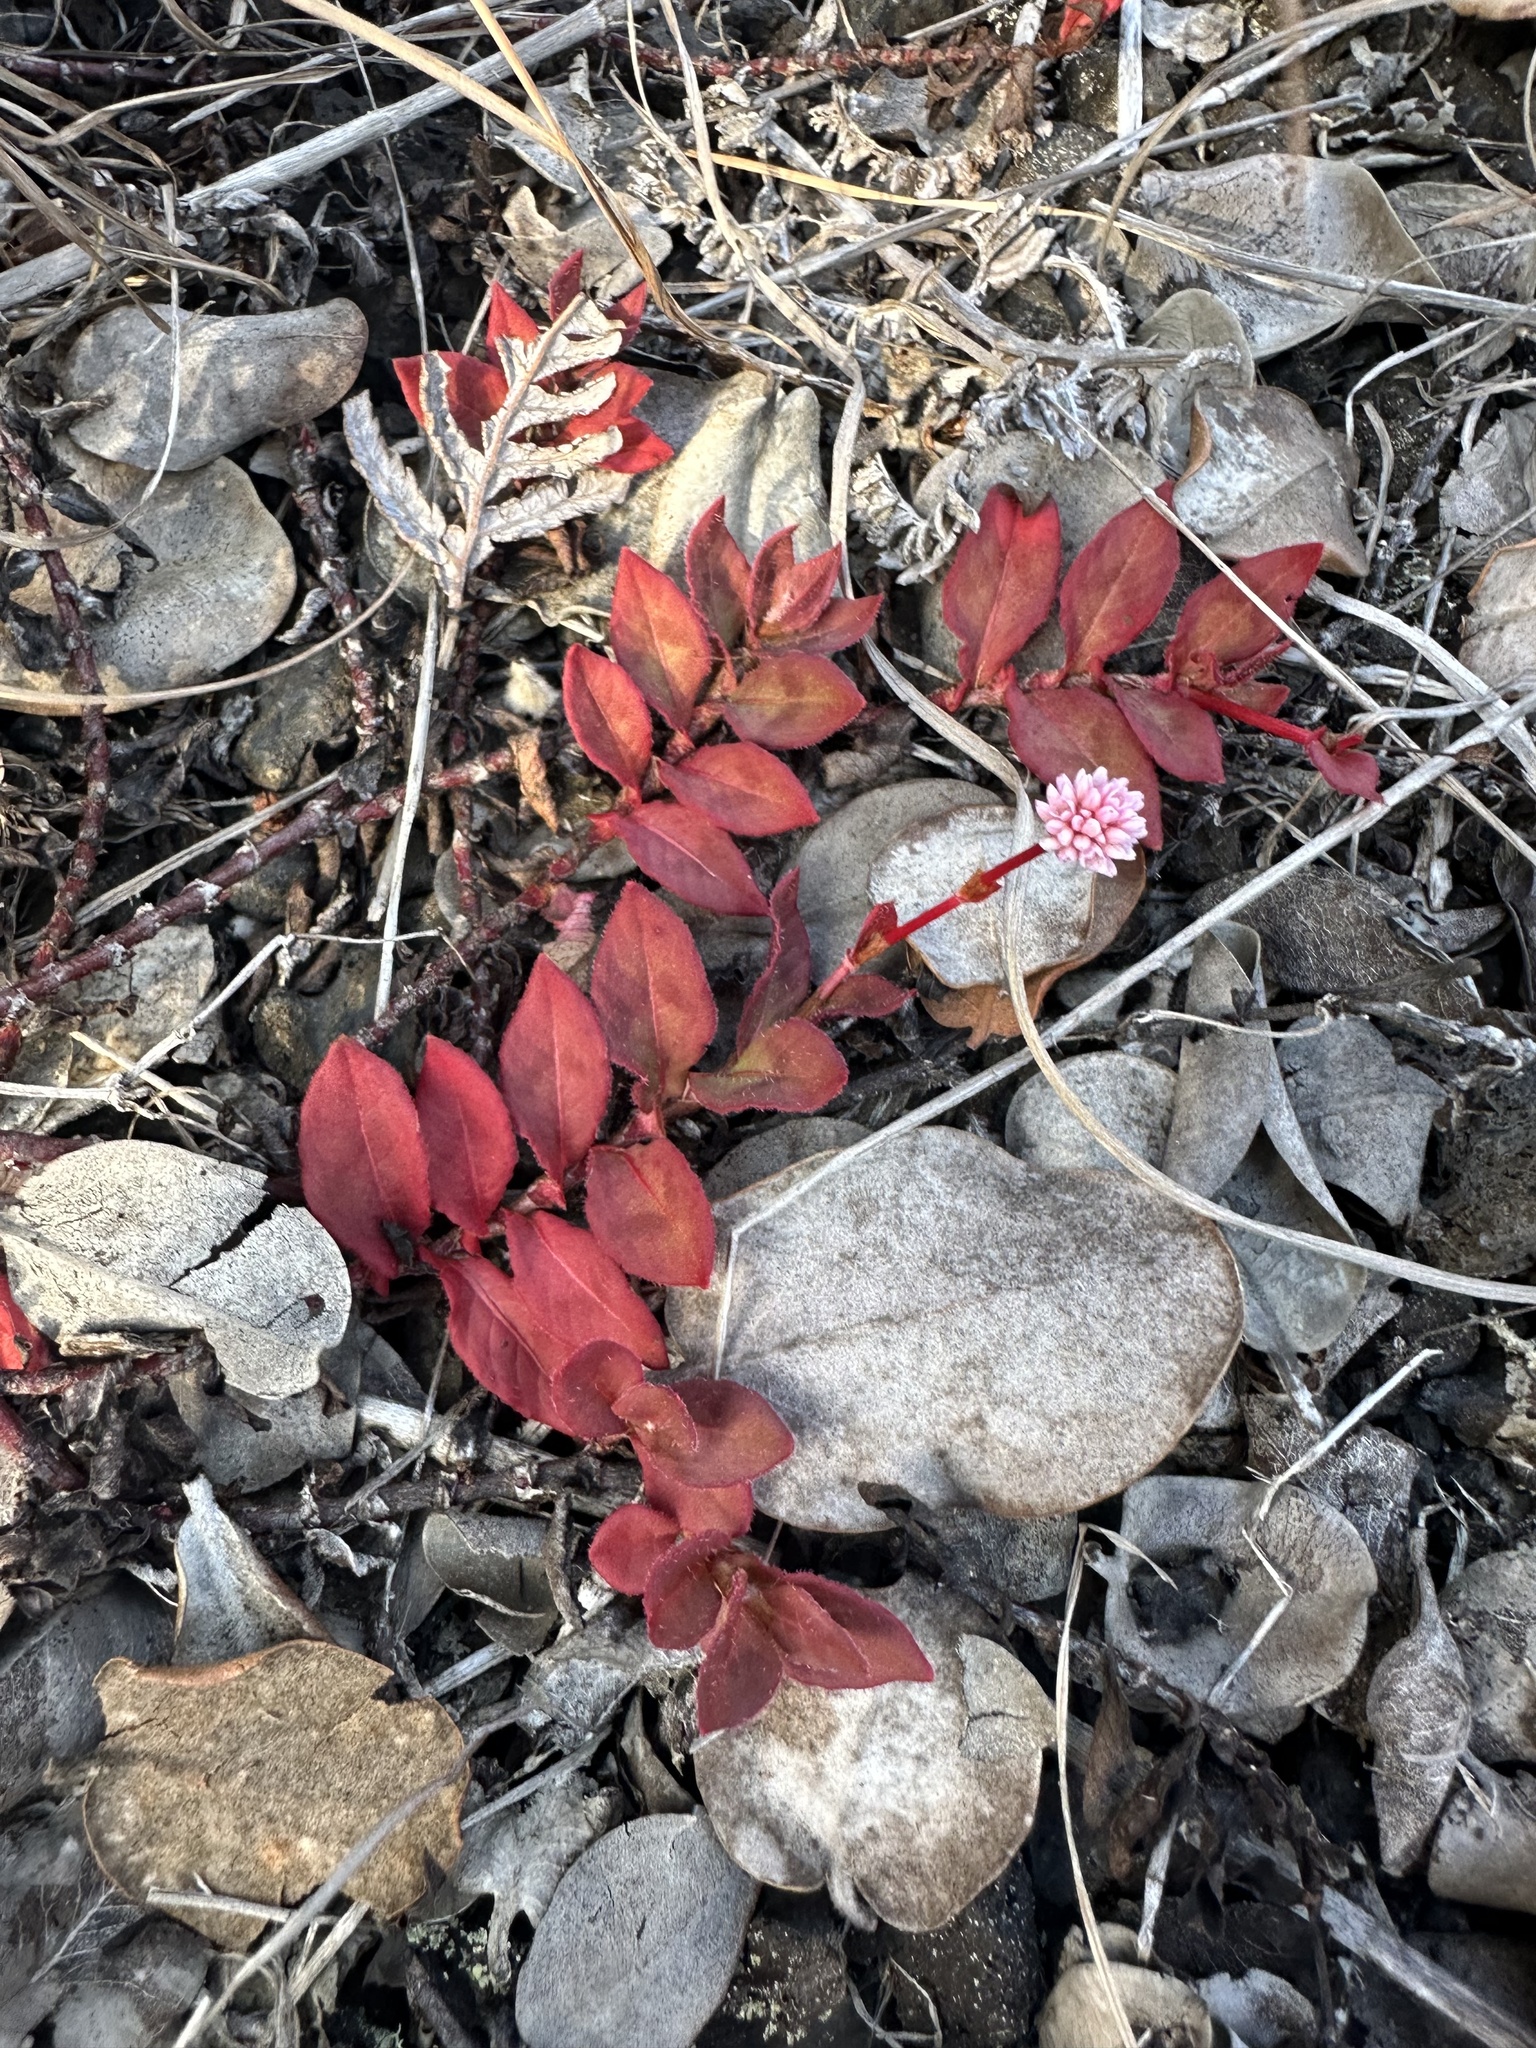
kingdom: Plantae
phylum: Tracheophyta
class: Magnoliopsida
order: Caryophyllales
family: Polygonaceae
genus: Persicaria
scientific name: Persicaria capitata
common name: Pinkhead smartweed
